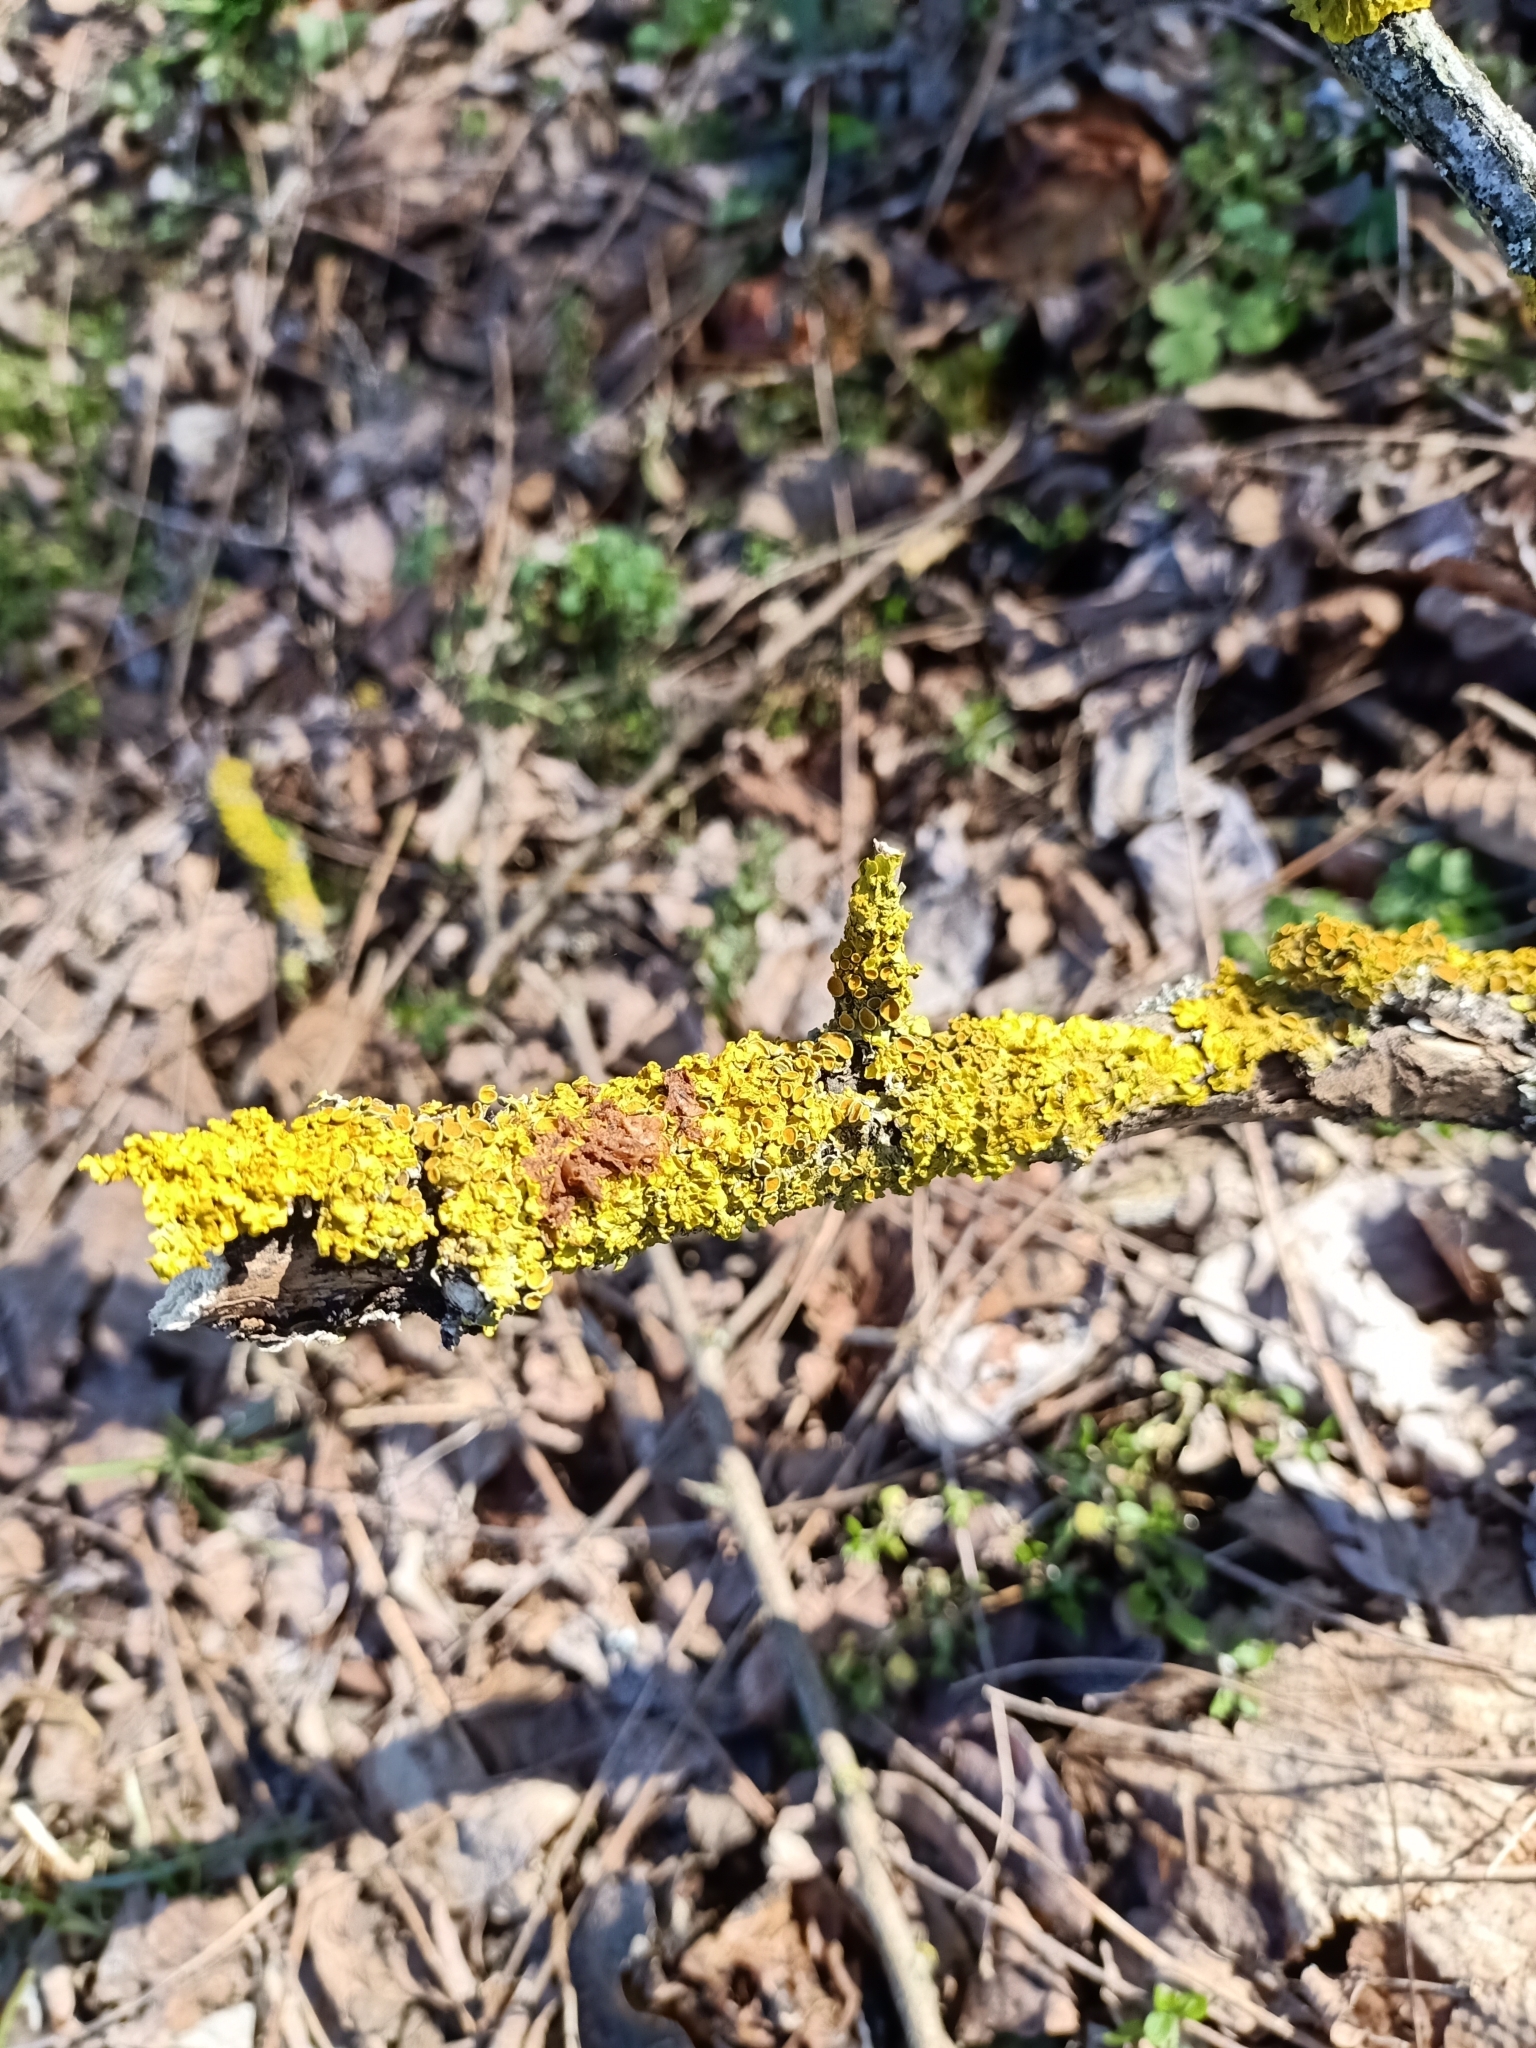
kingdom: Fungi
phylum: Ascomycota
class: Lecanoromycetes
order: Teloschistales
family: Teloschistaceae
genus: Xanthoria
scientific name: Xanthoria parietina
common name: Common orange lichen
